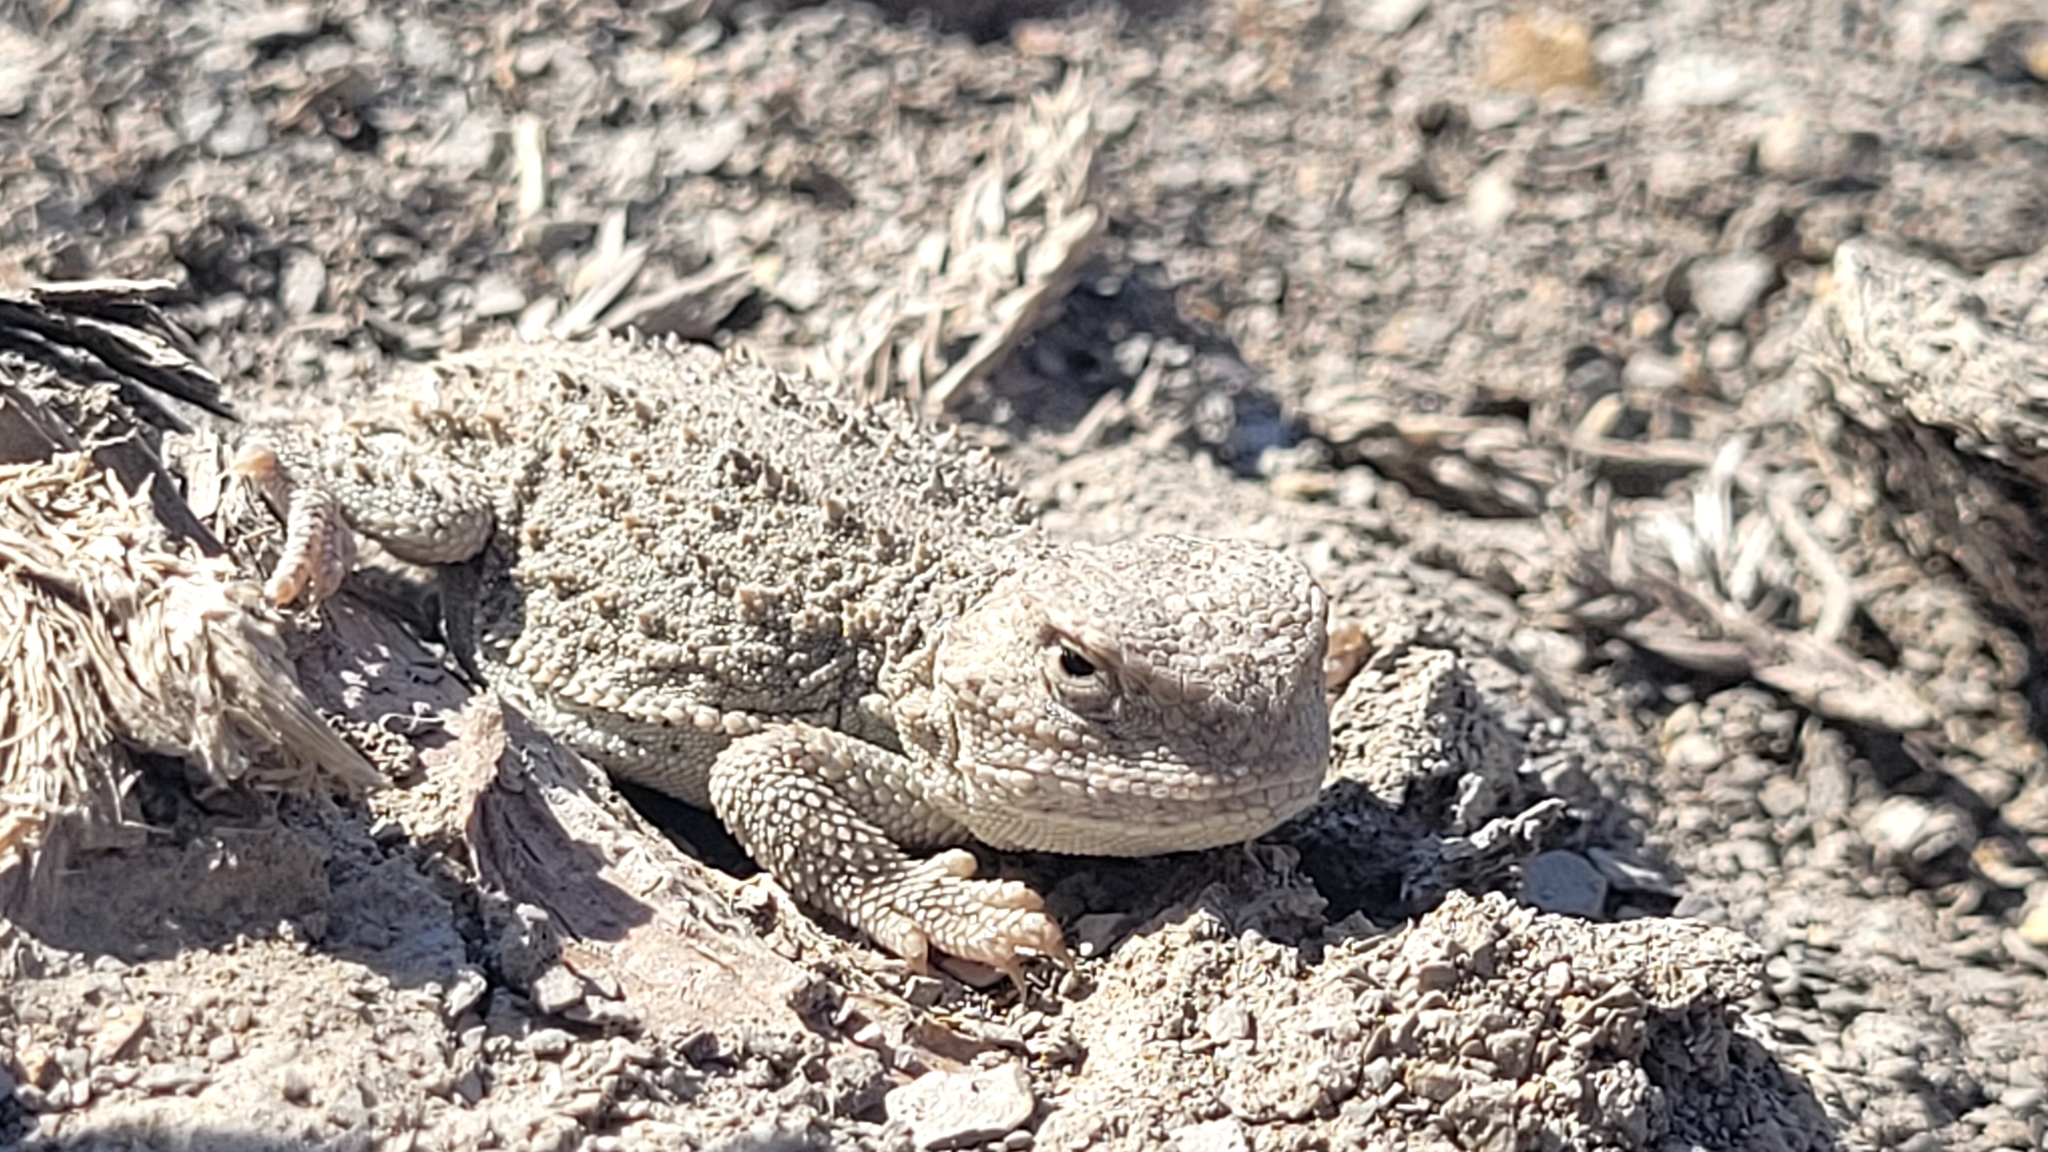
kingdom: Animalia
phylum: Chordata
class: Squamata
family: Phrynosomatidae
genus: Phrynosoma
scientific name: Phrynosoma hernandesi
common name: Greater short-horned lizard
